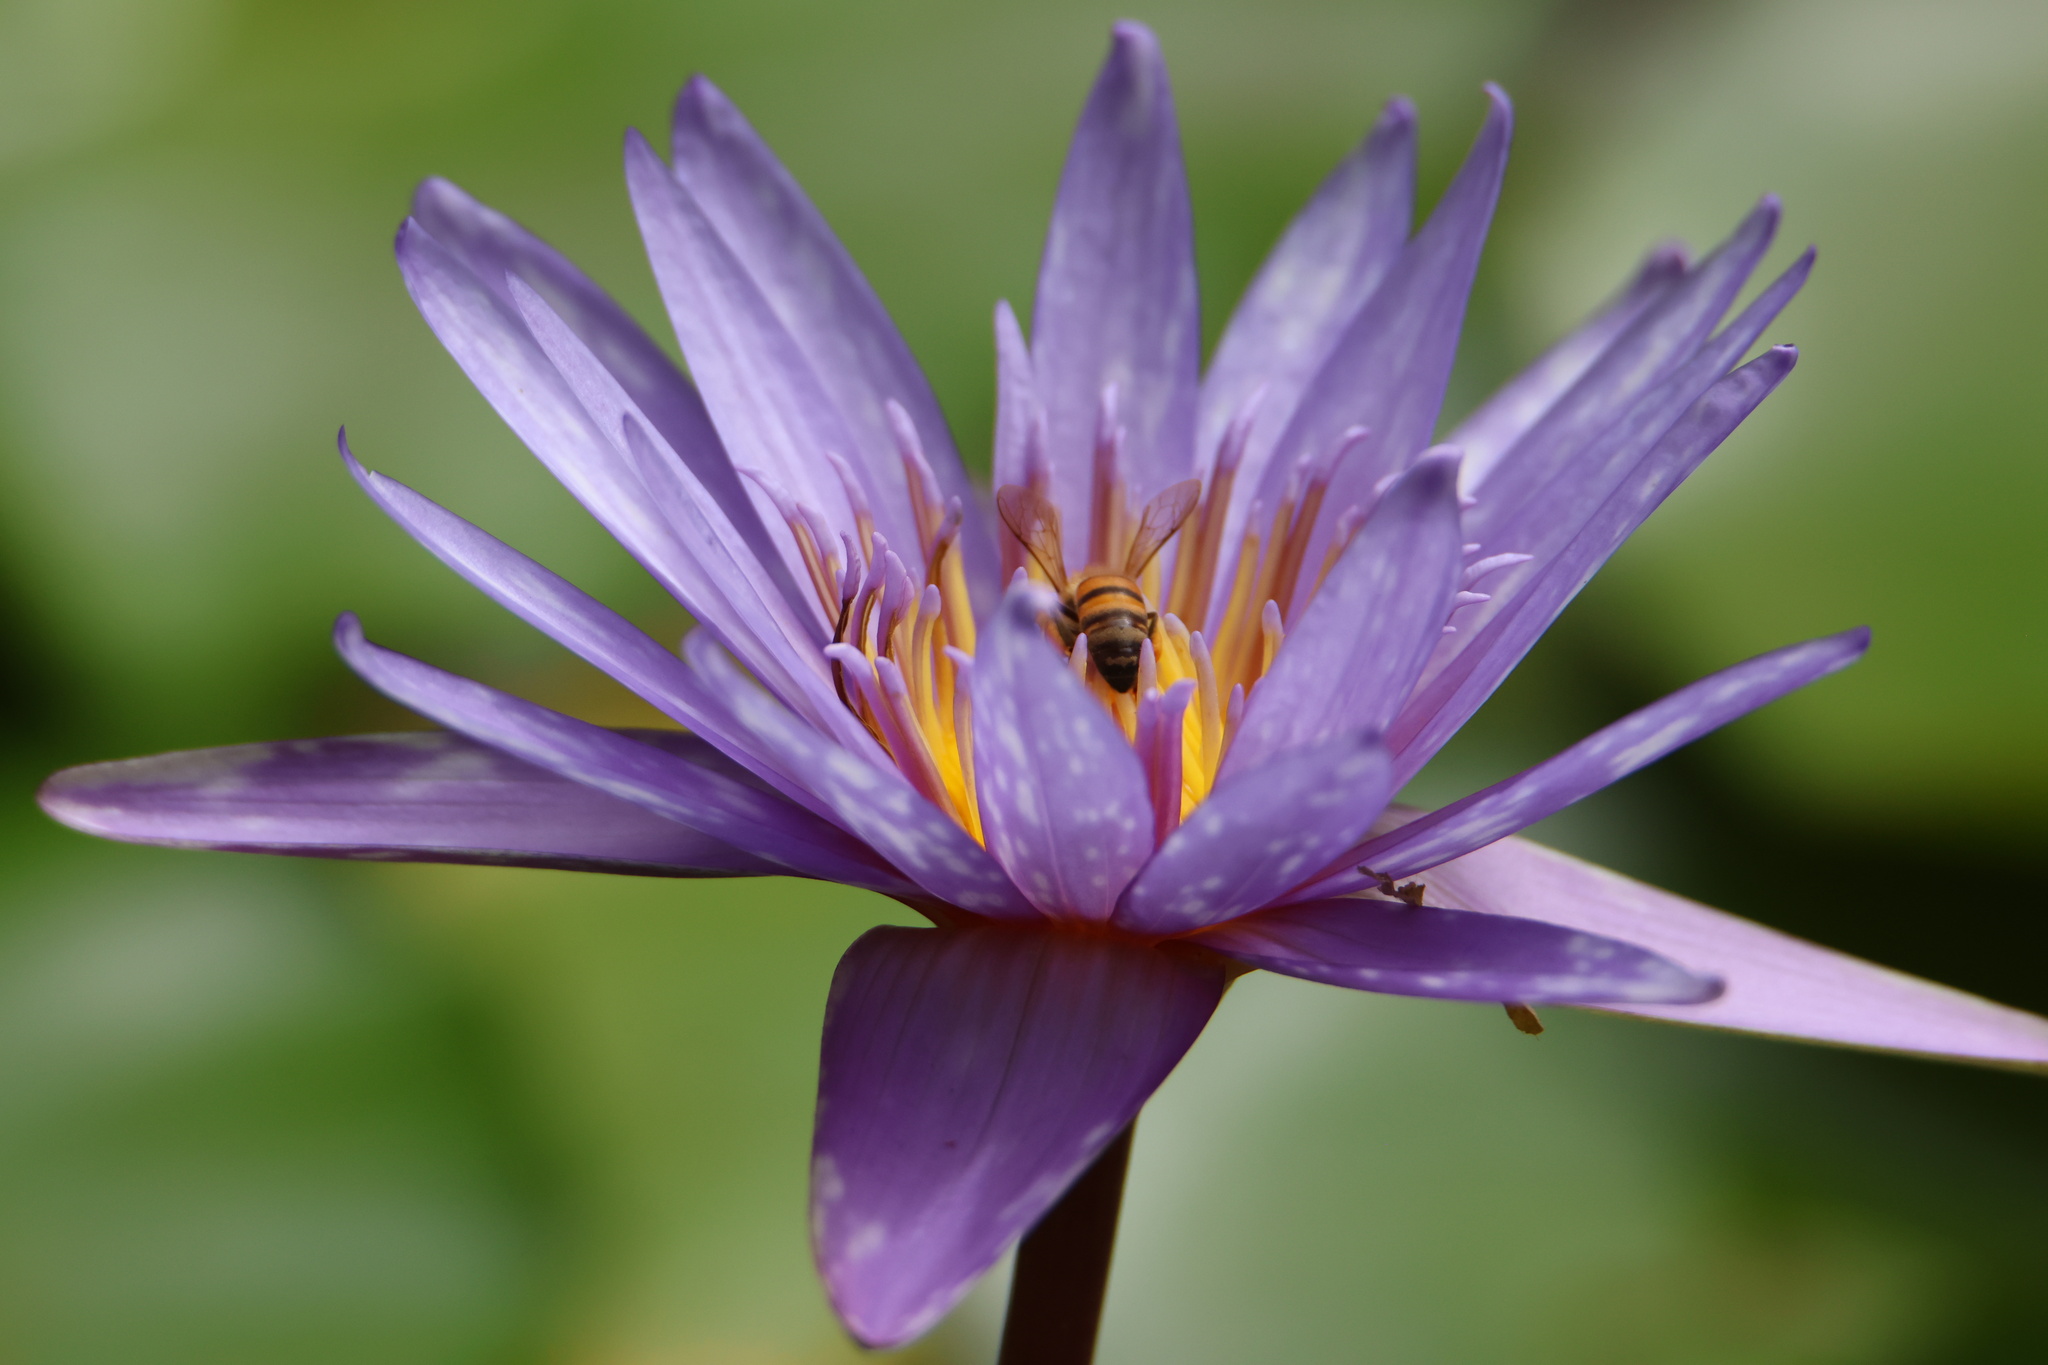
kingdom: Animalia
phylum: Arthropoda
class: Insecta
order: Hymenoptera
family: Apidae
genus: Apis
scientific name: Apis mellifera
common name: Honey bee
